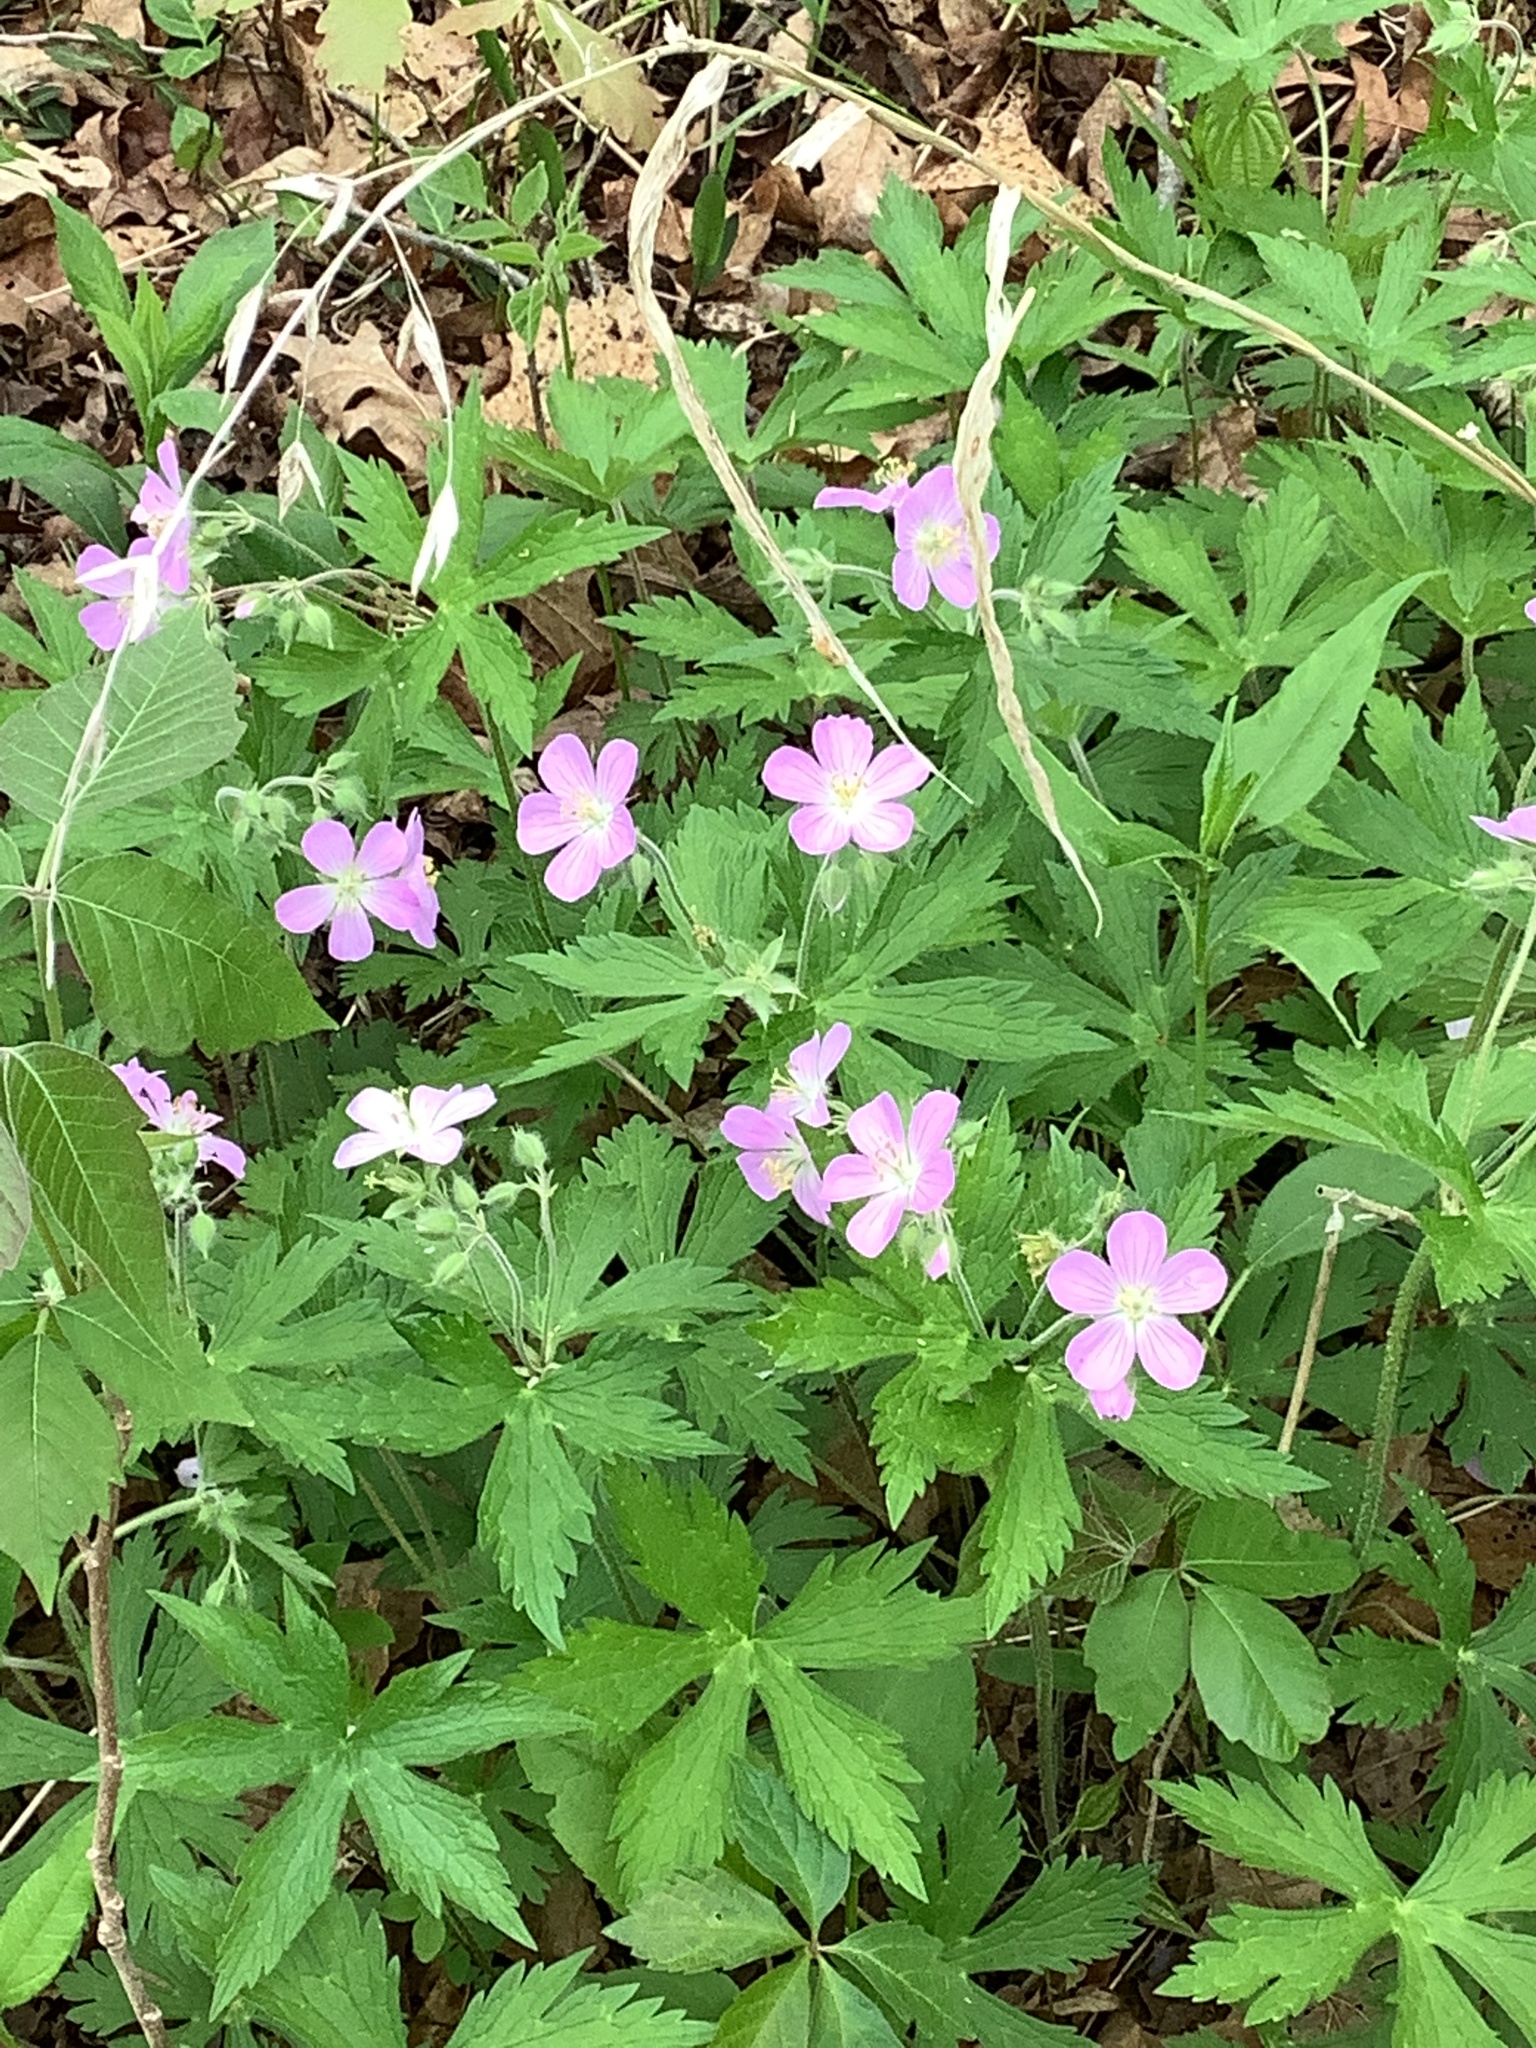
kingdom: Plantae
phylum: Tracheophyta
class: Magnoliopsida
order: Geraniales
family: Geraniaceae
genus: Geranium
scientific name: Geranium maculatum
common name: Spotted geranium
